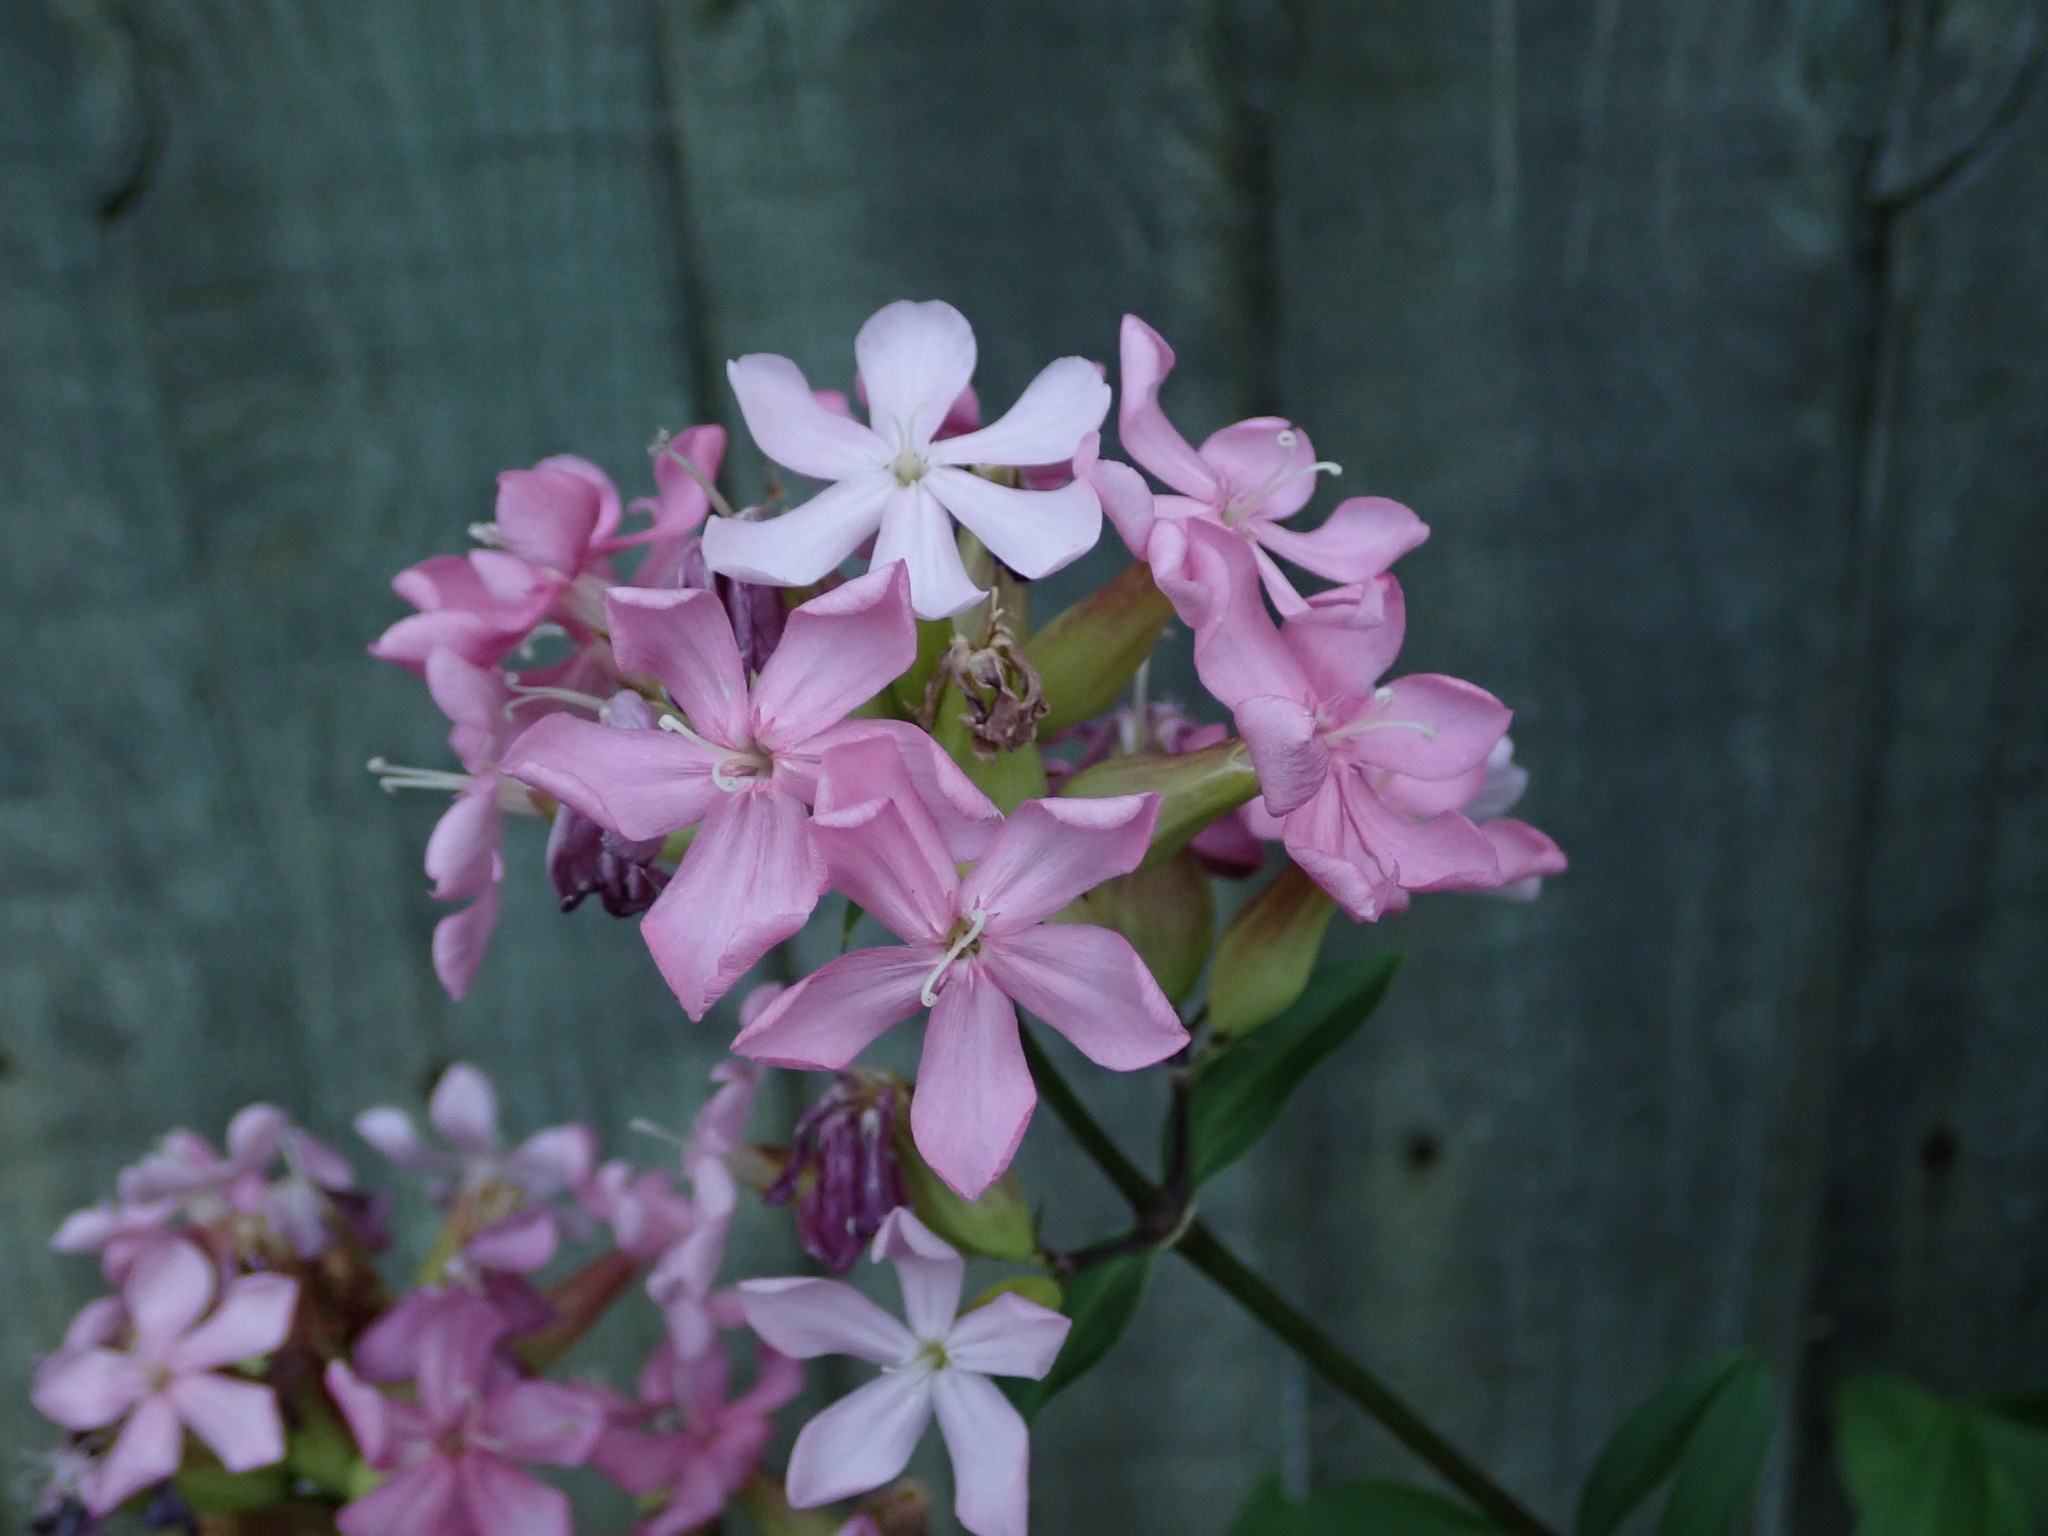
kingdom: Plantae
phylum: Tracheophyta
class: Magnoliopsida
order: Caryophyllales
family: Caryophyllaceae
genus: Saponaria
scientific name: Saponaria officinalis
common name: Soapwort
